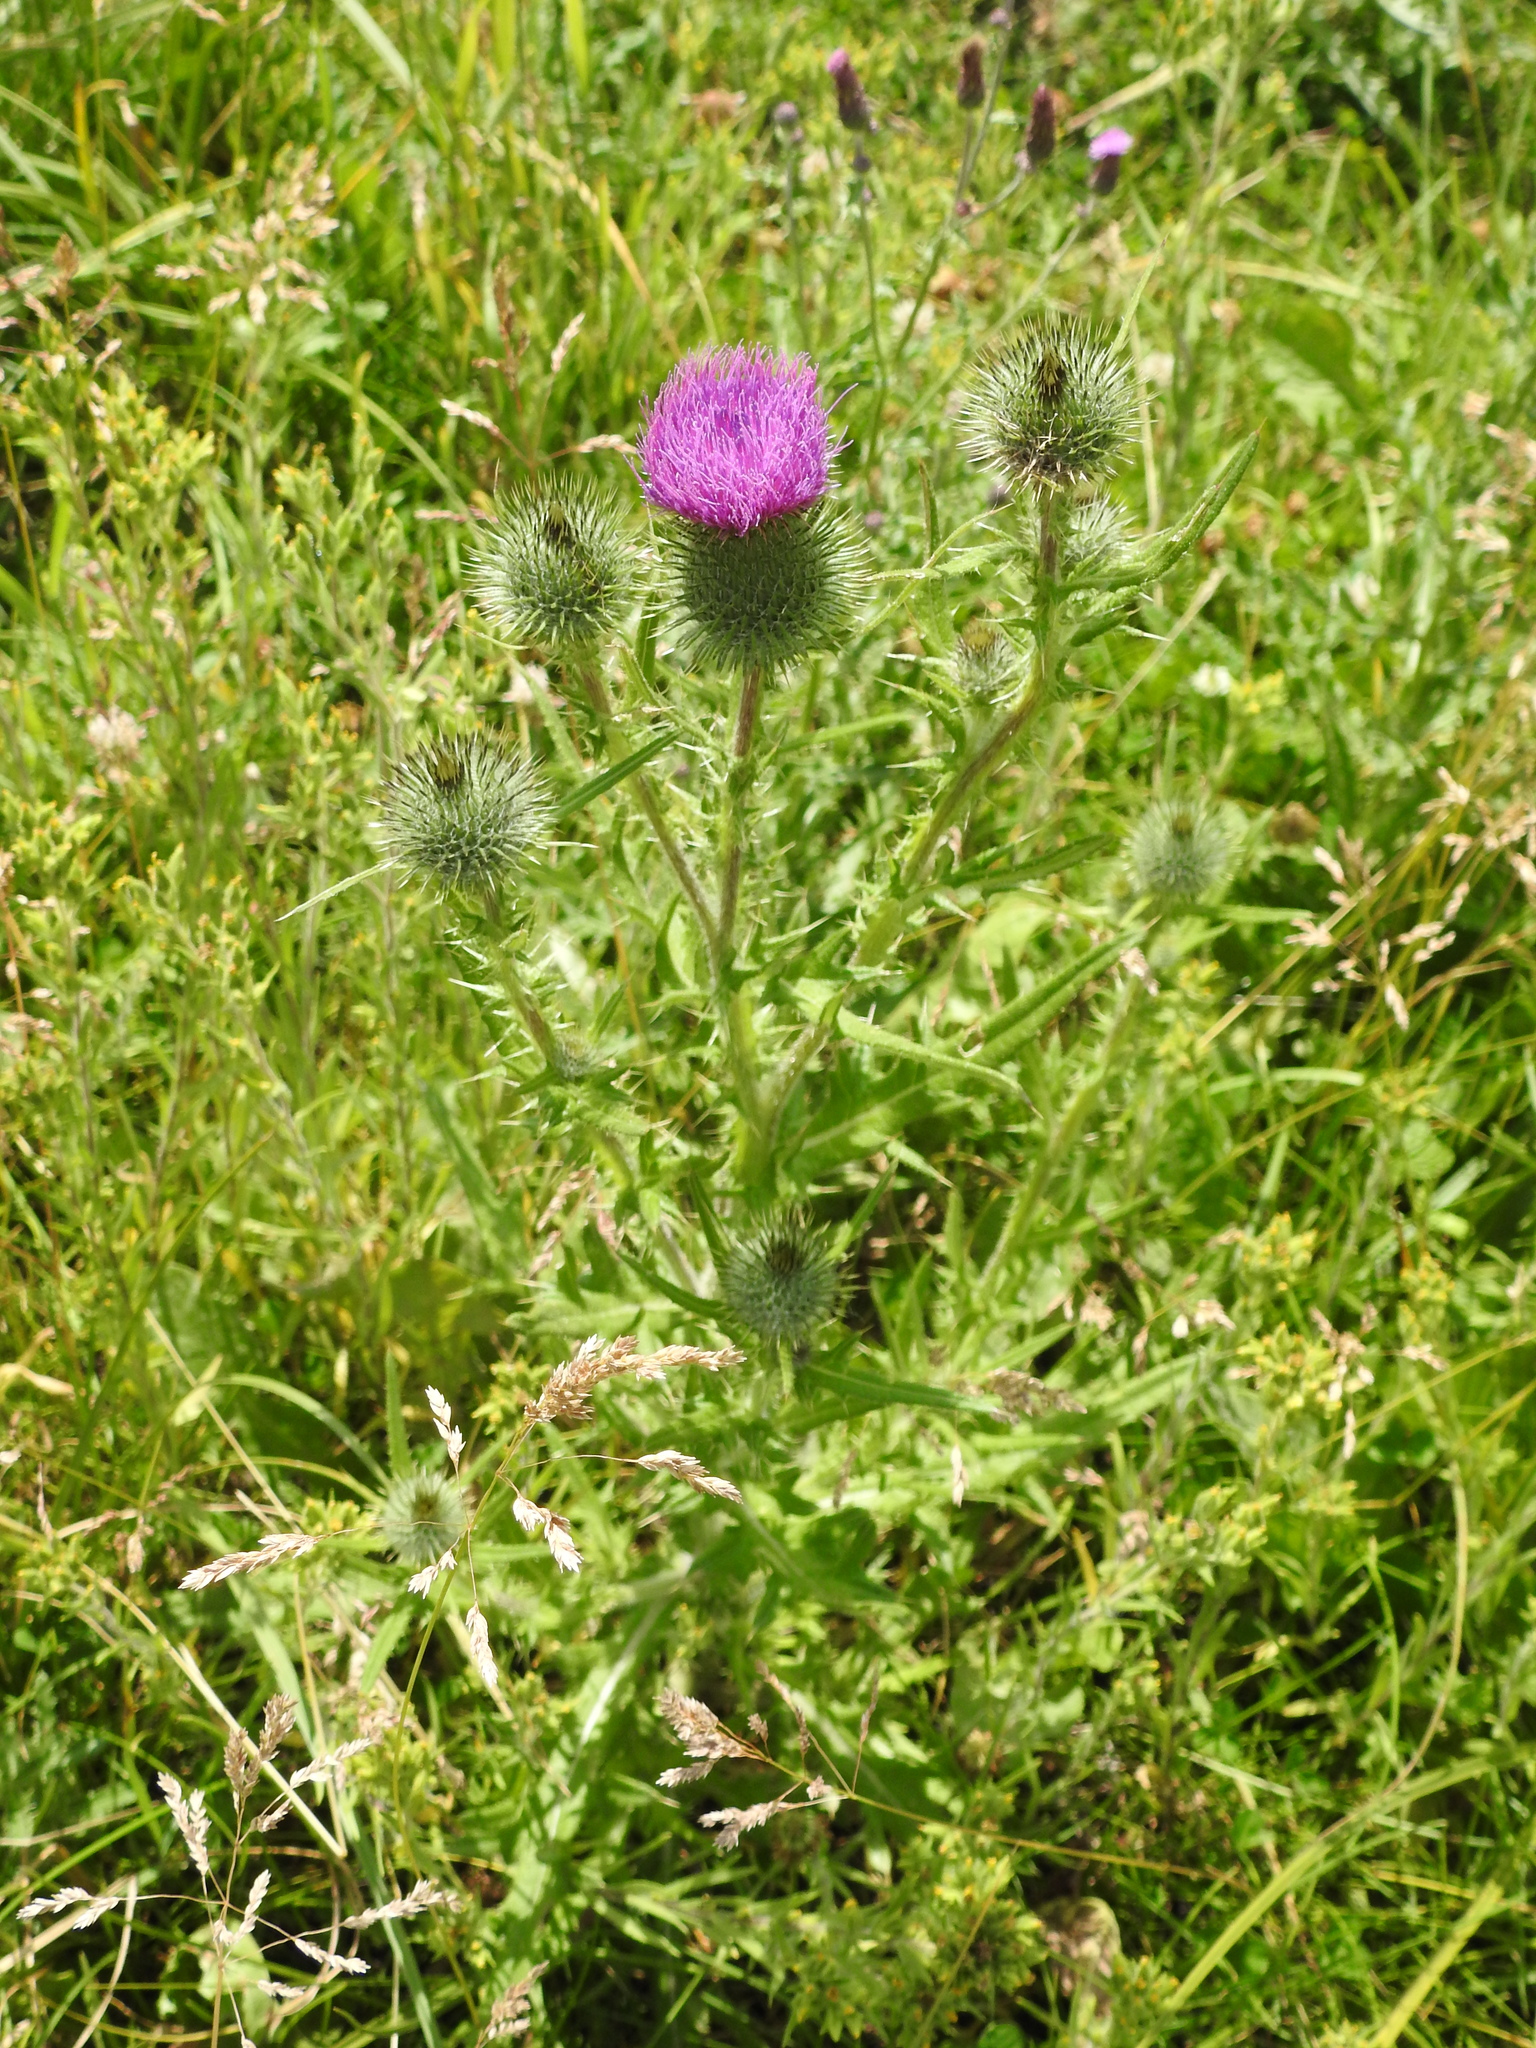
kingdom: Plantae
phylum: Tracheophyta
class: Magnoliopsida
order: Asterales
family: Asteraceae
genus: Cirsium
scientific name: Cirsium vulgare
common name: Bull thistle
